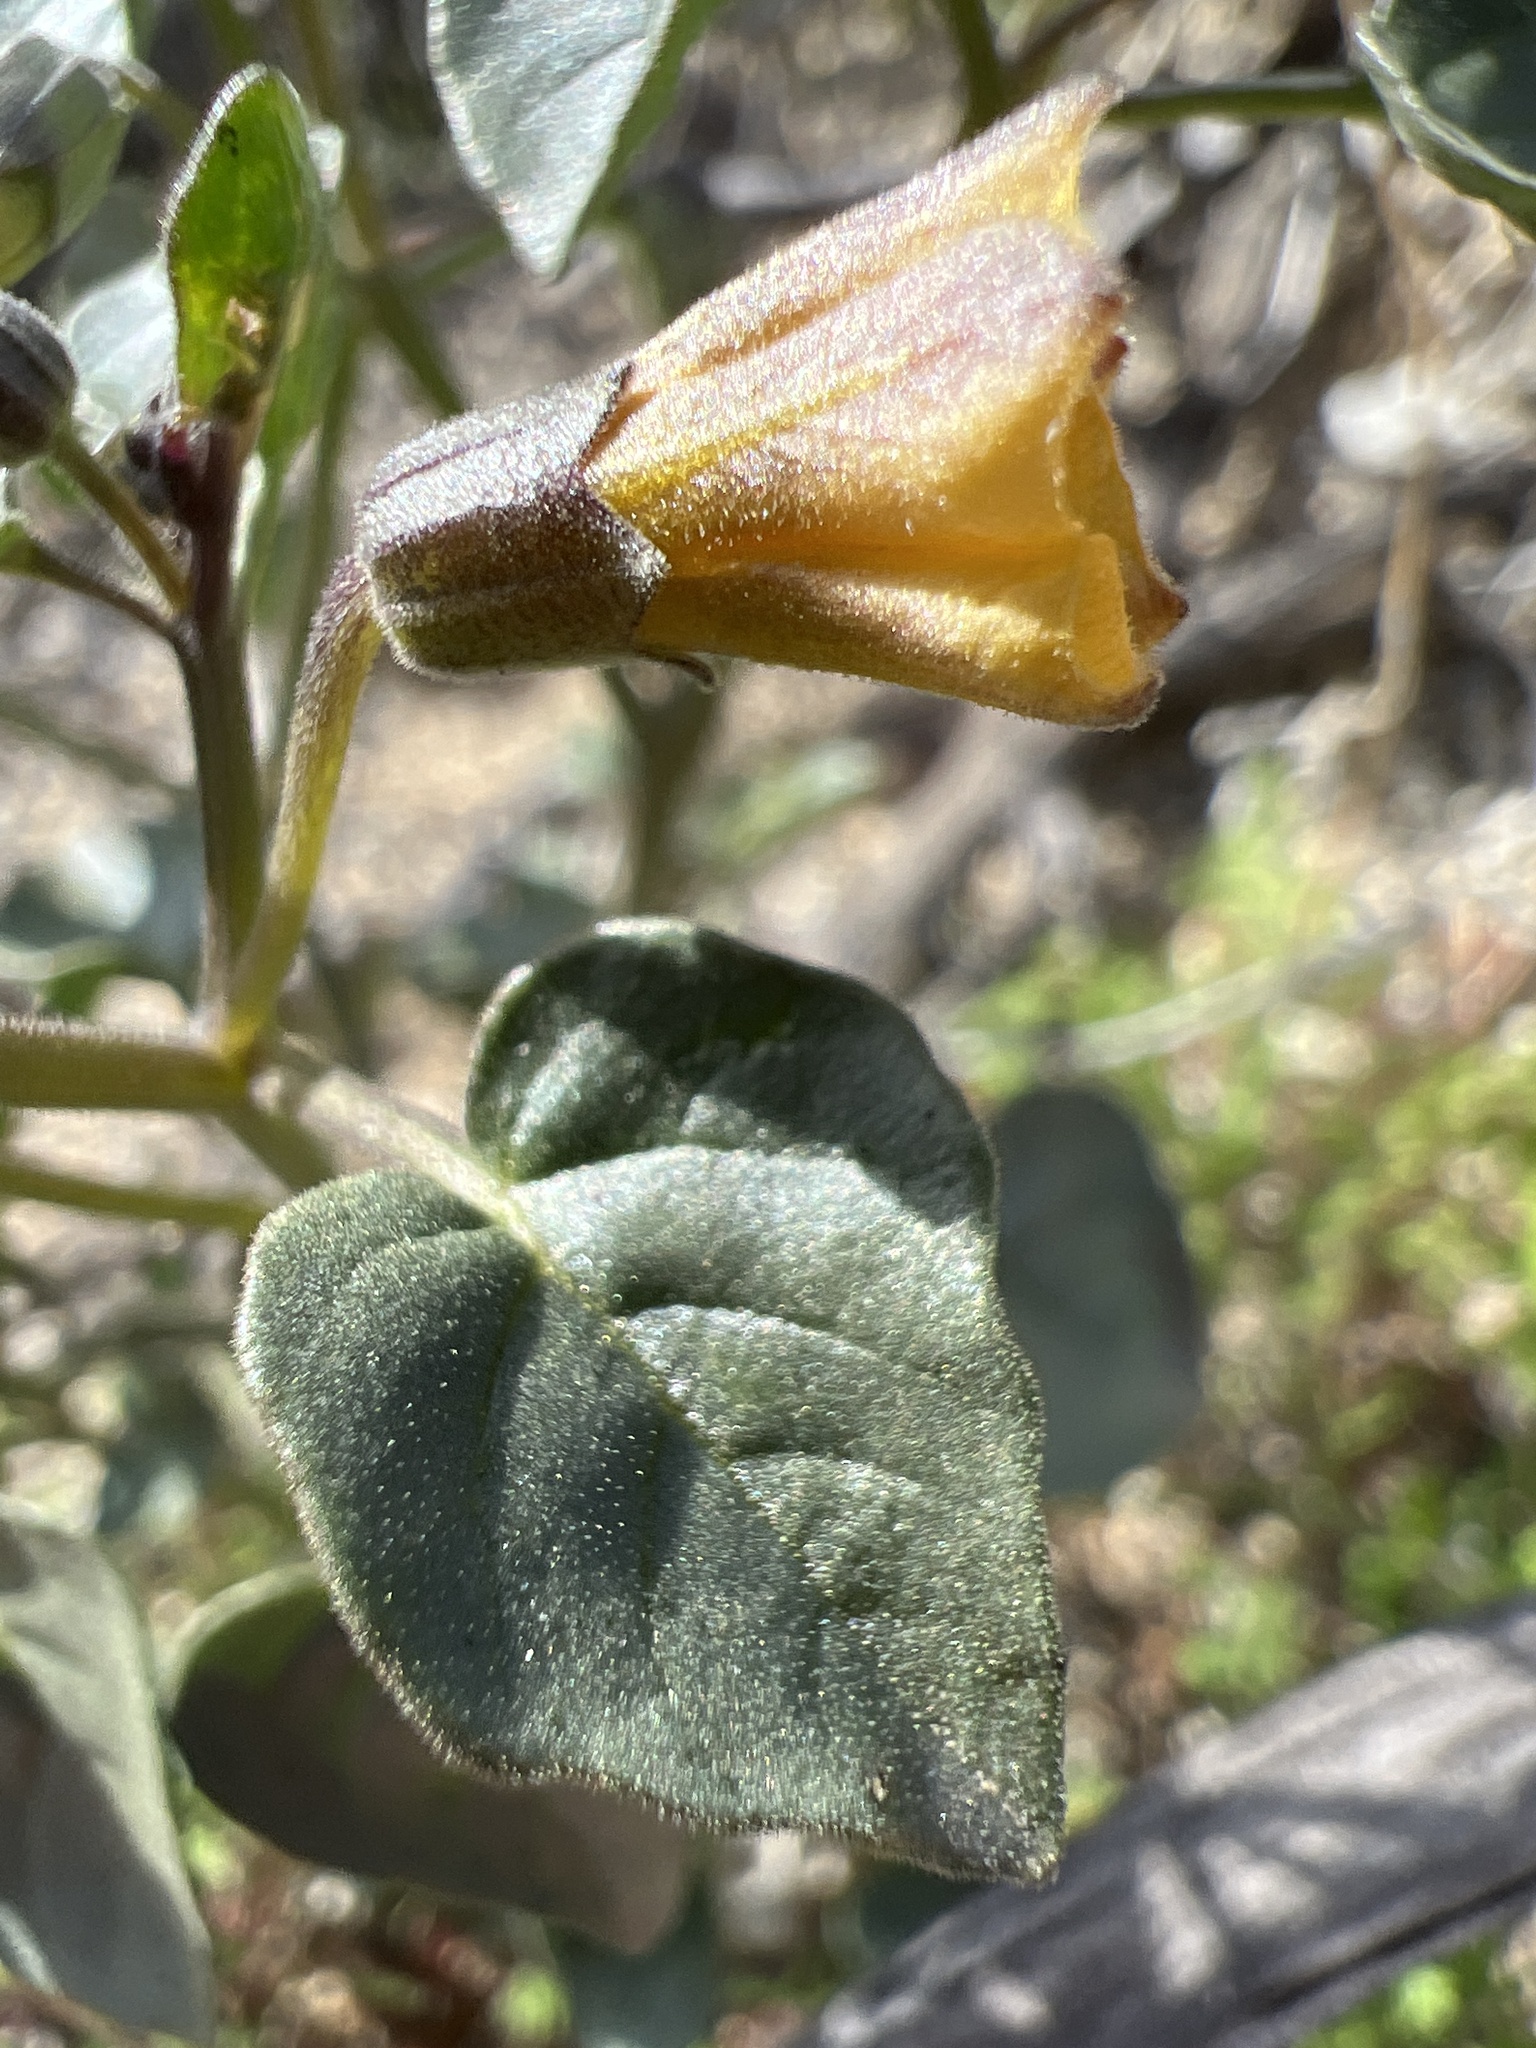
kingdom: Plantae
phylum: Tracheophyta
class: Magnoliopsida
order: Solanales
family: Solanaceae
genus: Physalis
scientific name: Physalis crassifolia
